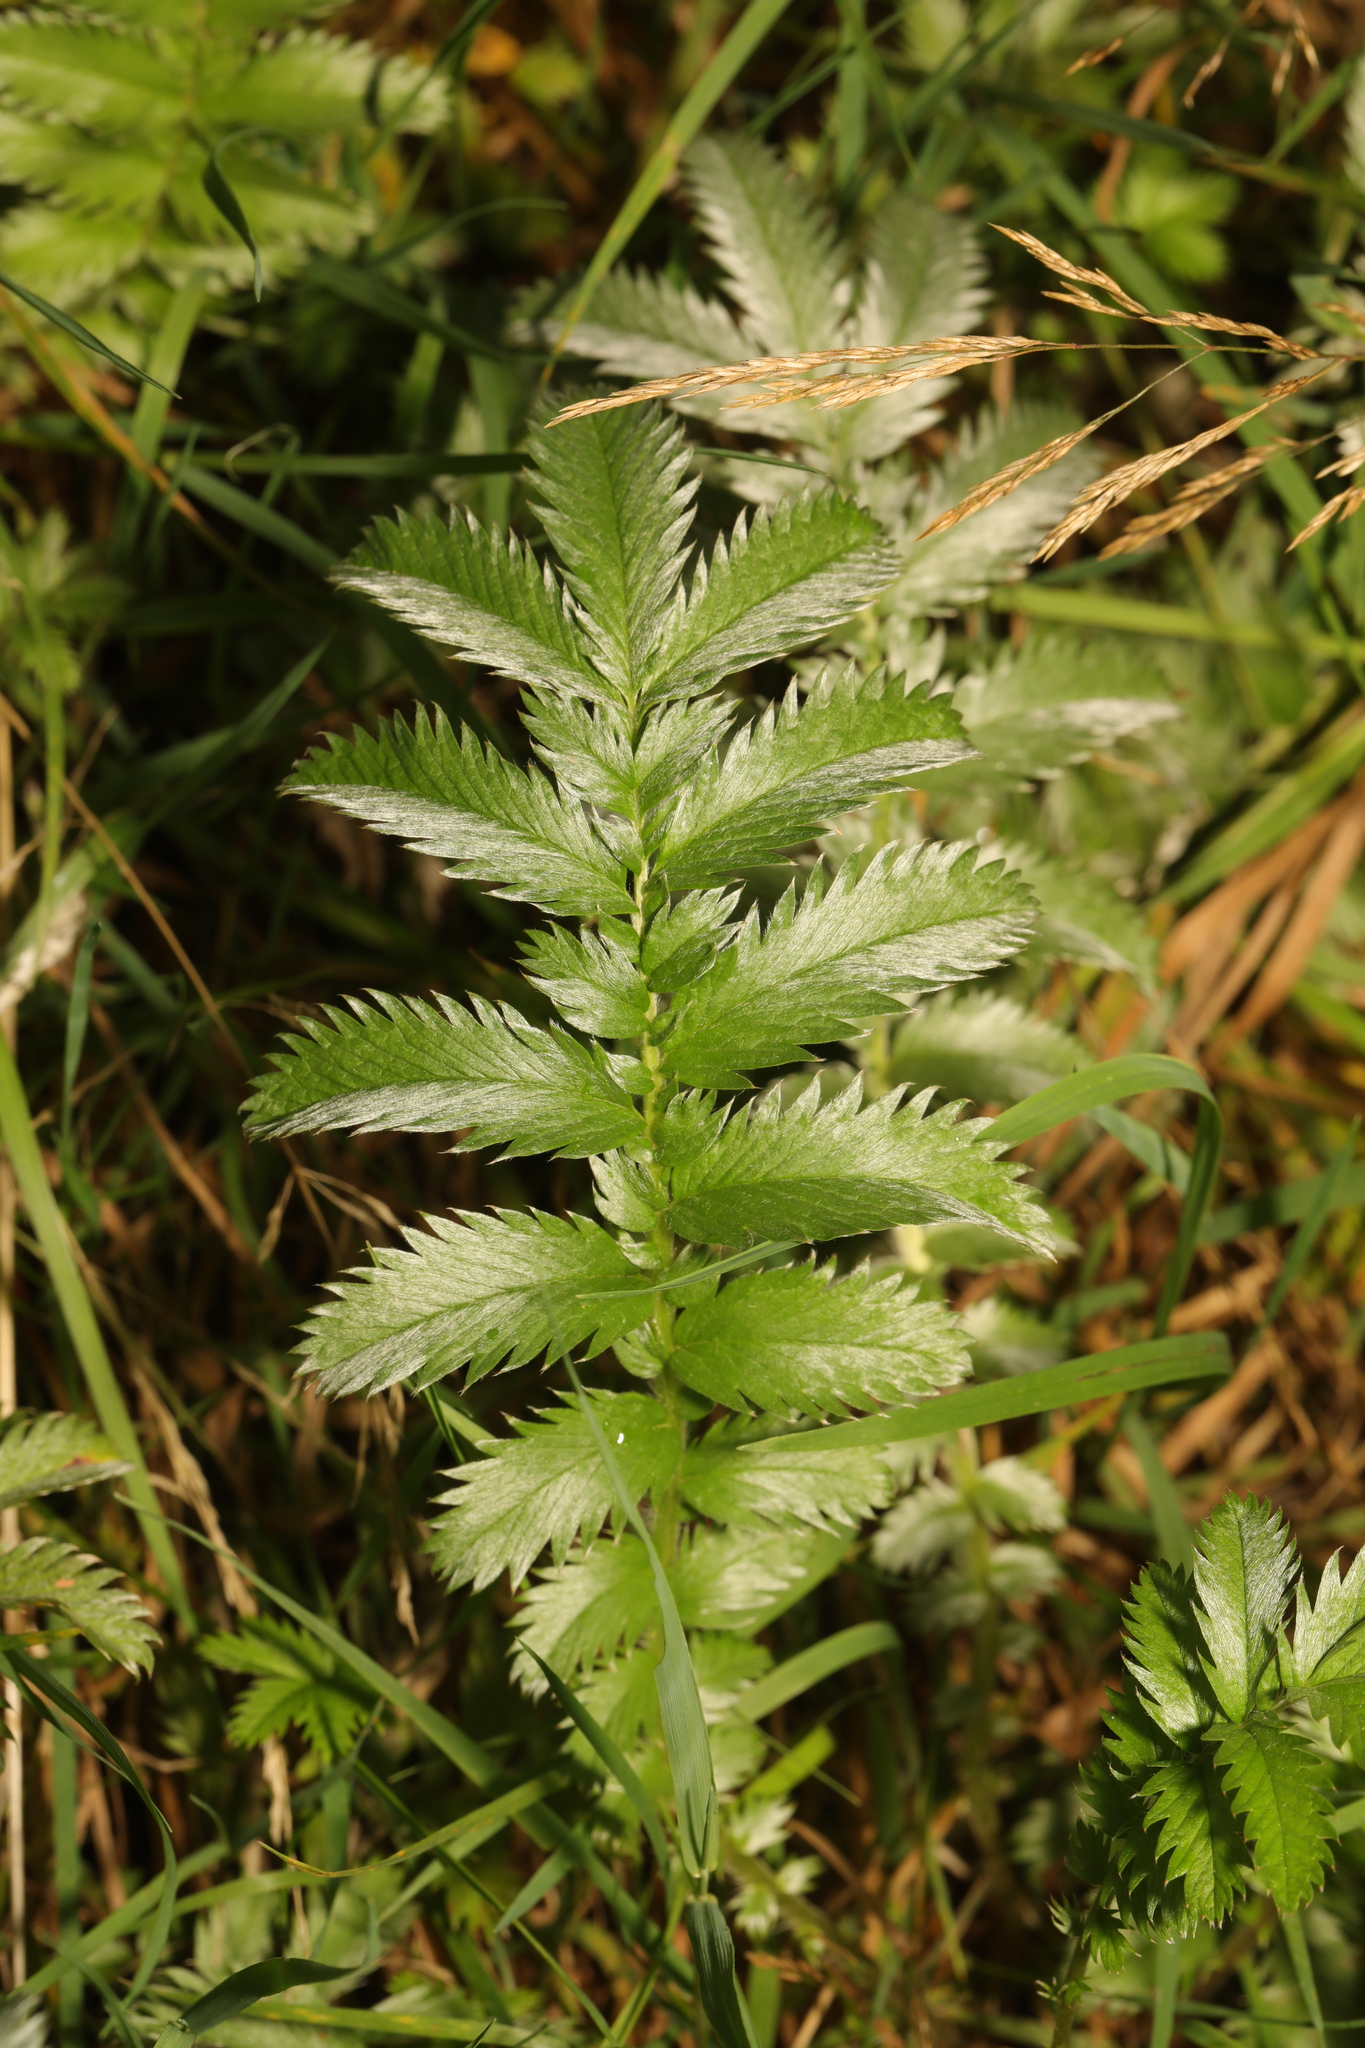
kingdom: Plantae
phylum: Tracheophyta
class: Magnoliopsida
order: Rosales
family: Rosaceae
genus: Argentina
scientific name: Argentina anserina
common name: Common silverweed
